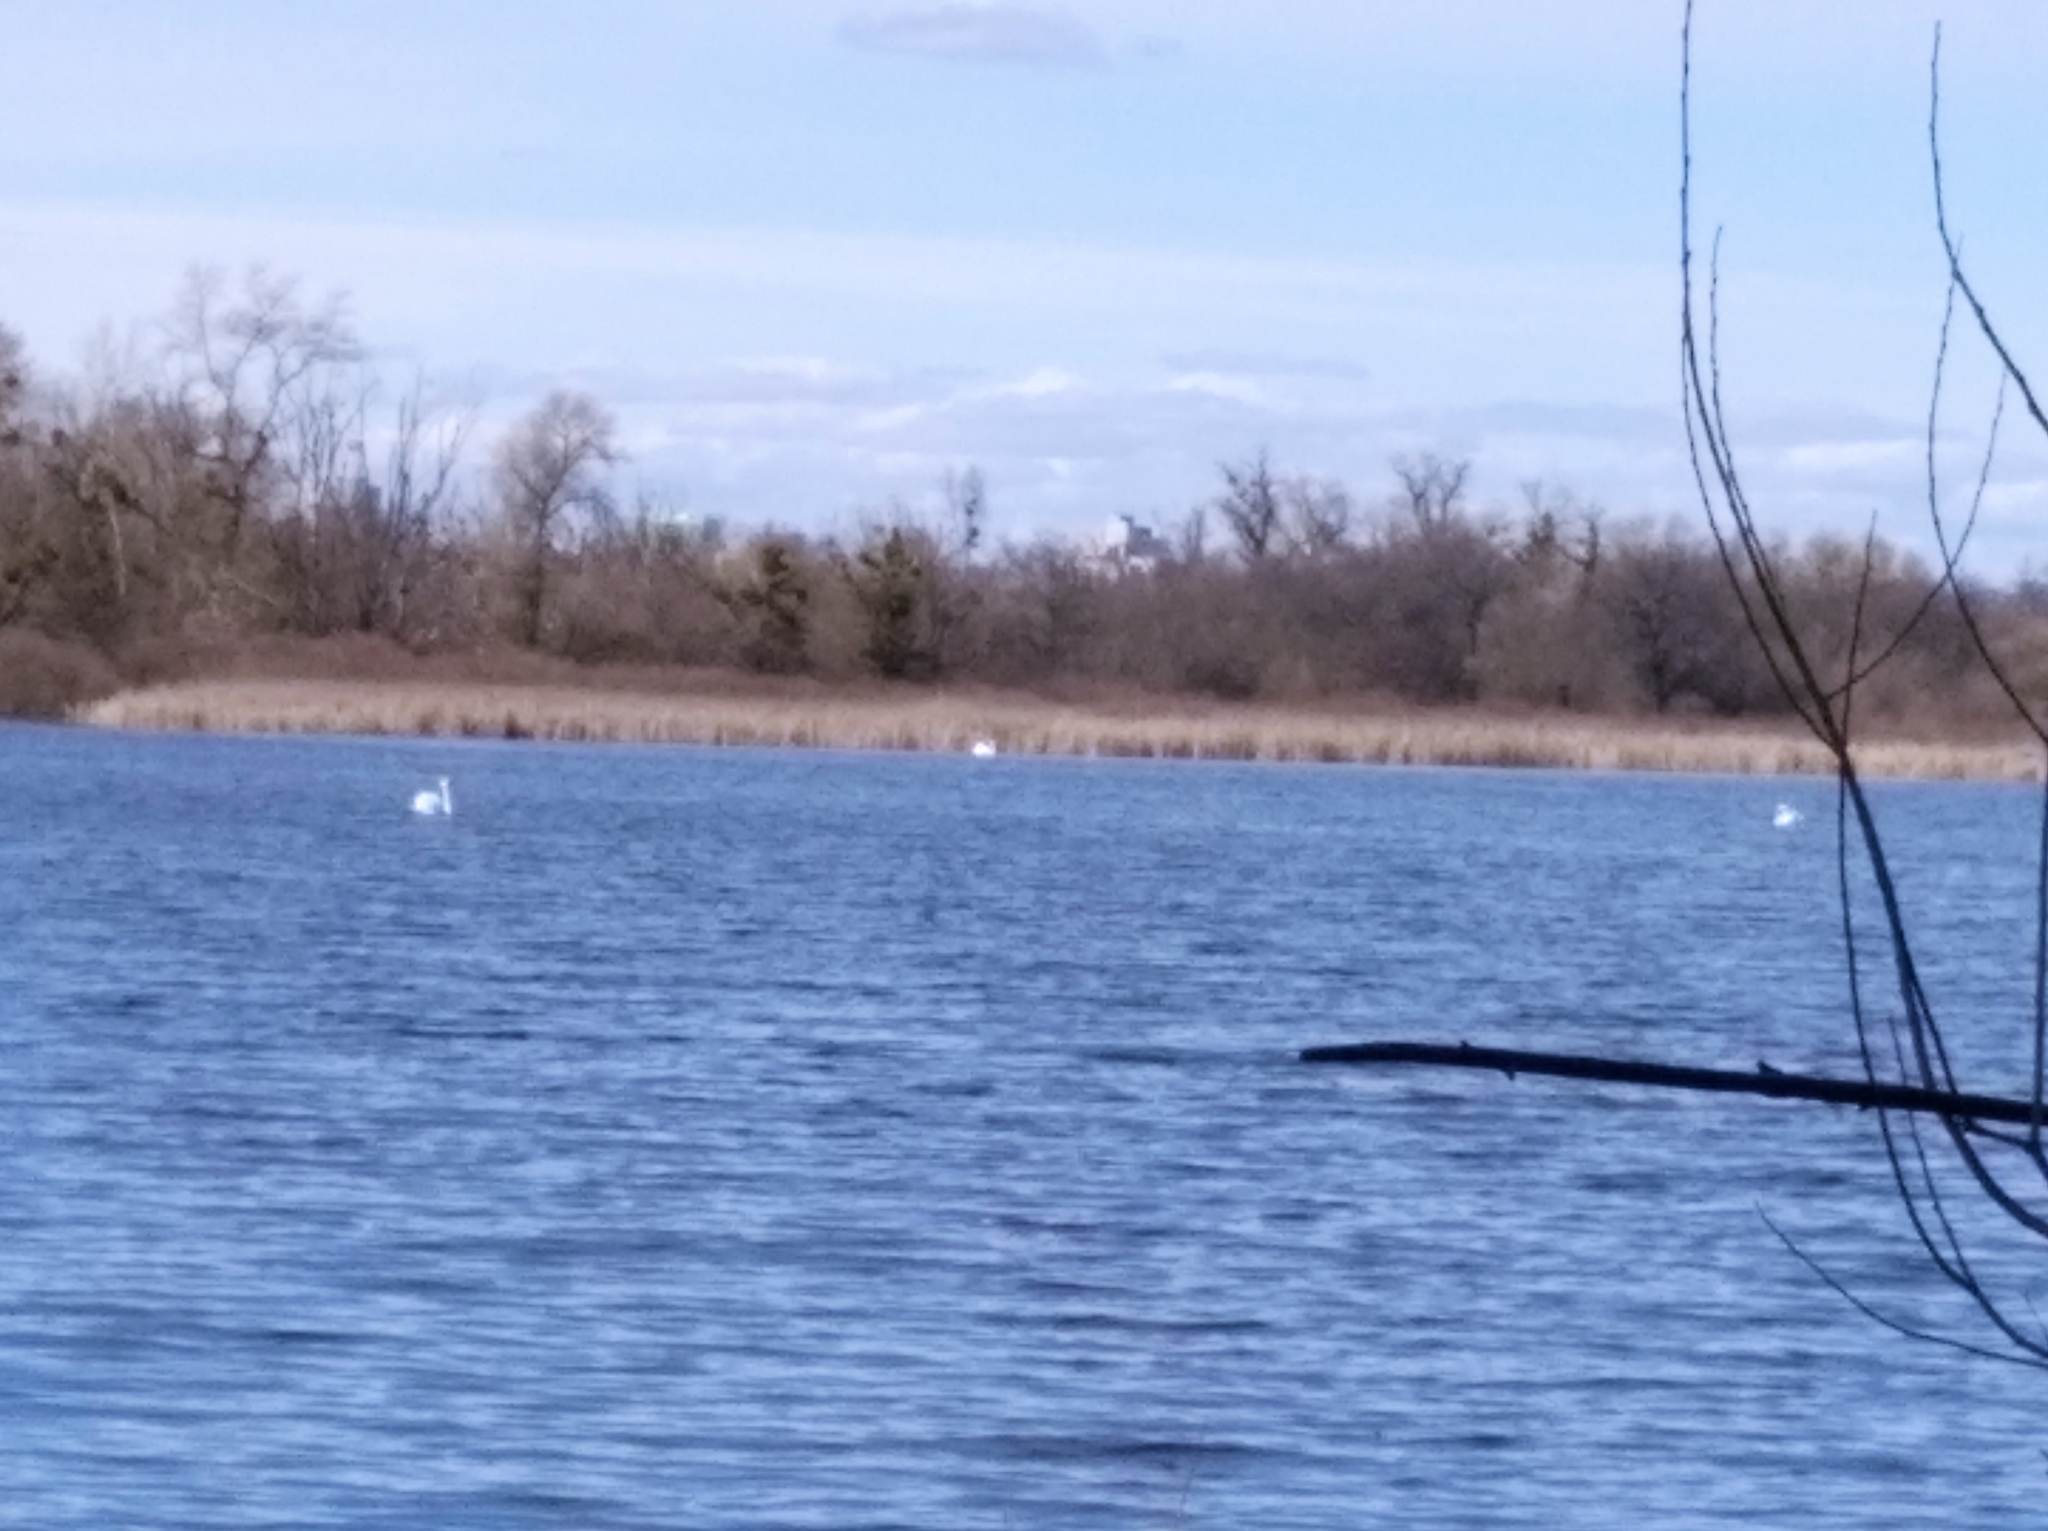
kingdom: Animalia
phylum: Chordata
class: Aves
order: Anseriformes
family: Anatidae
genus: Cygnus
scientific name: Cygnus olor
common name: Mute swan
